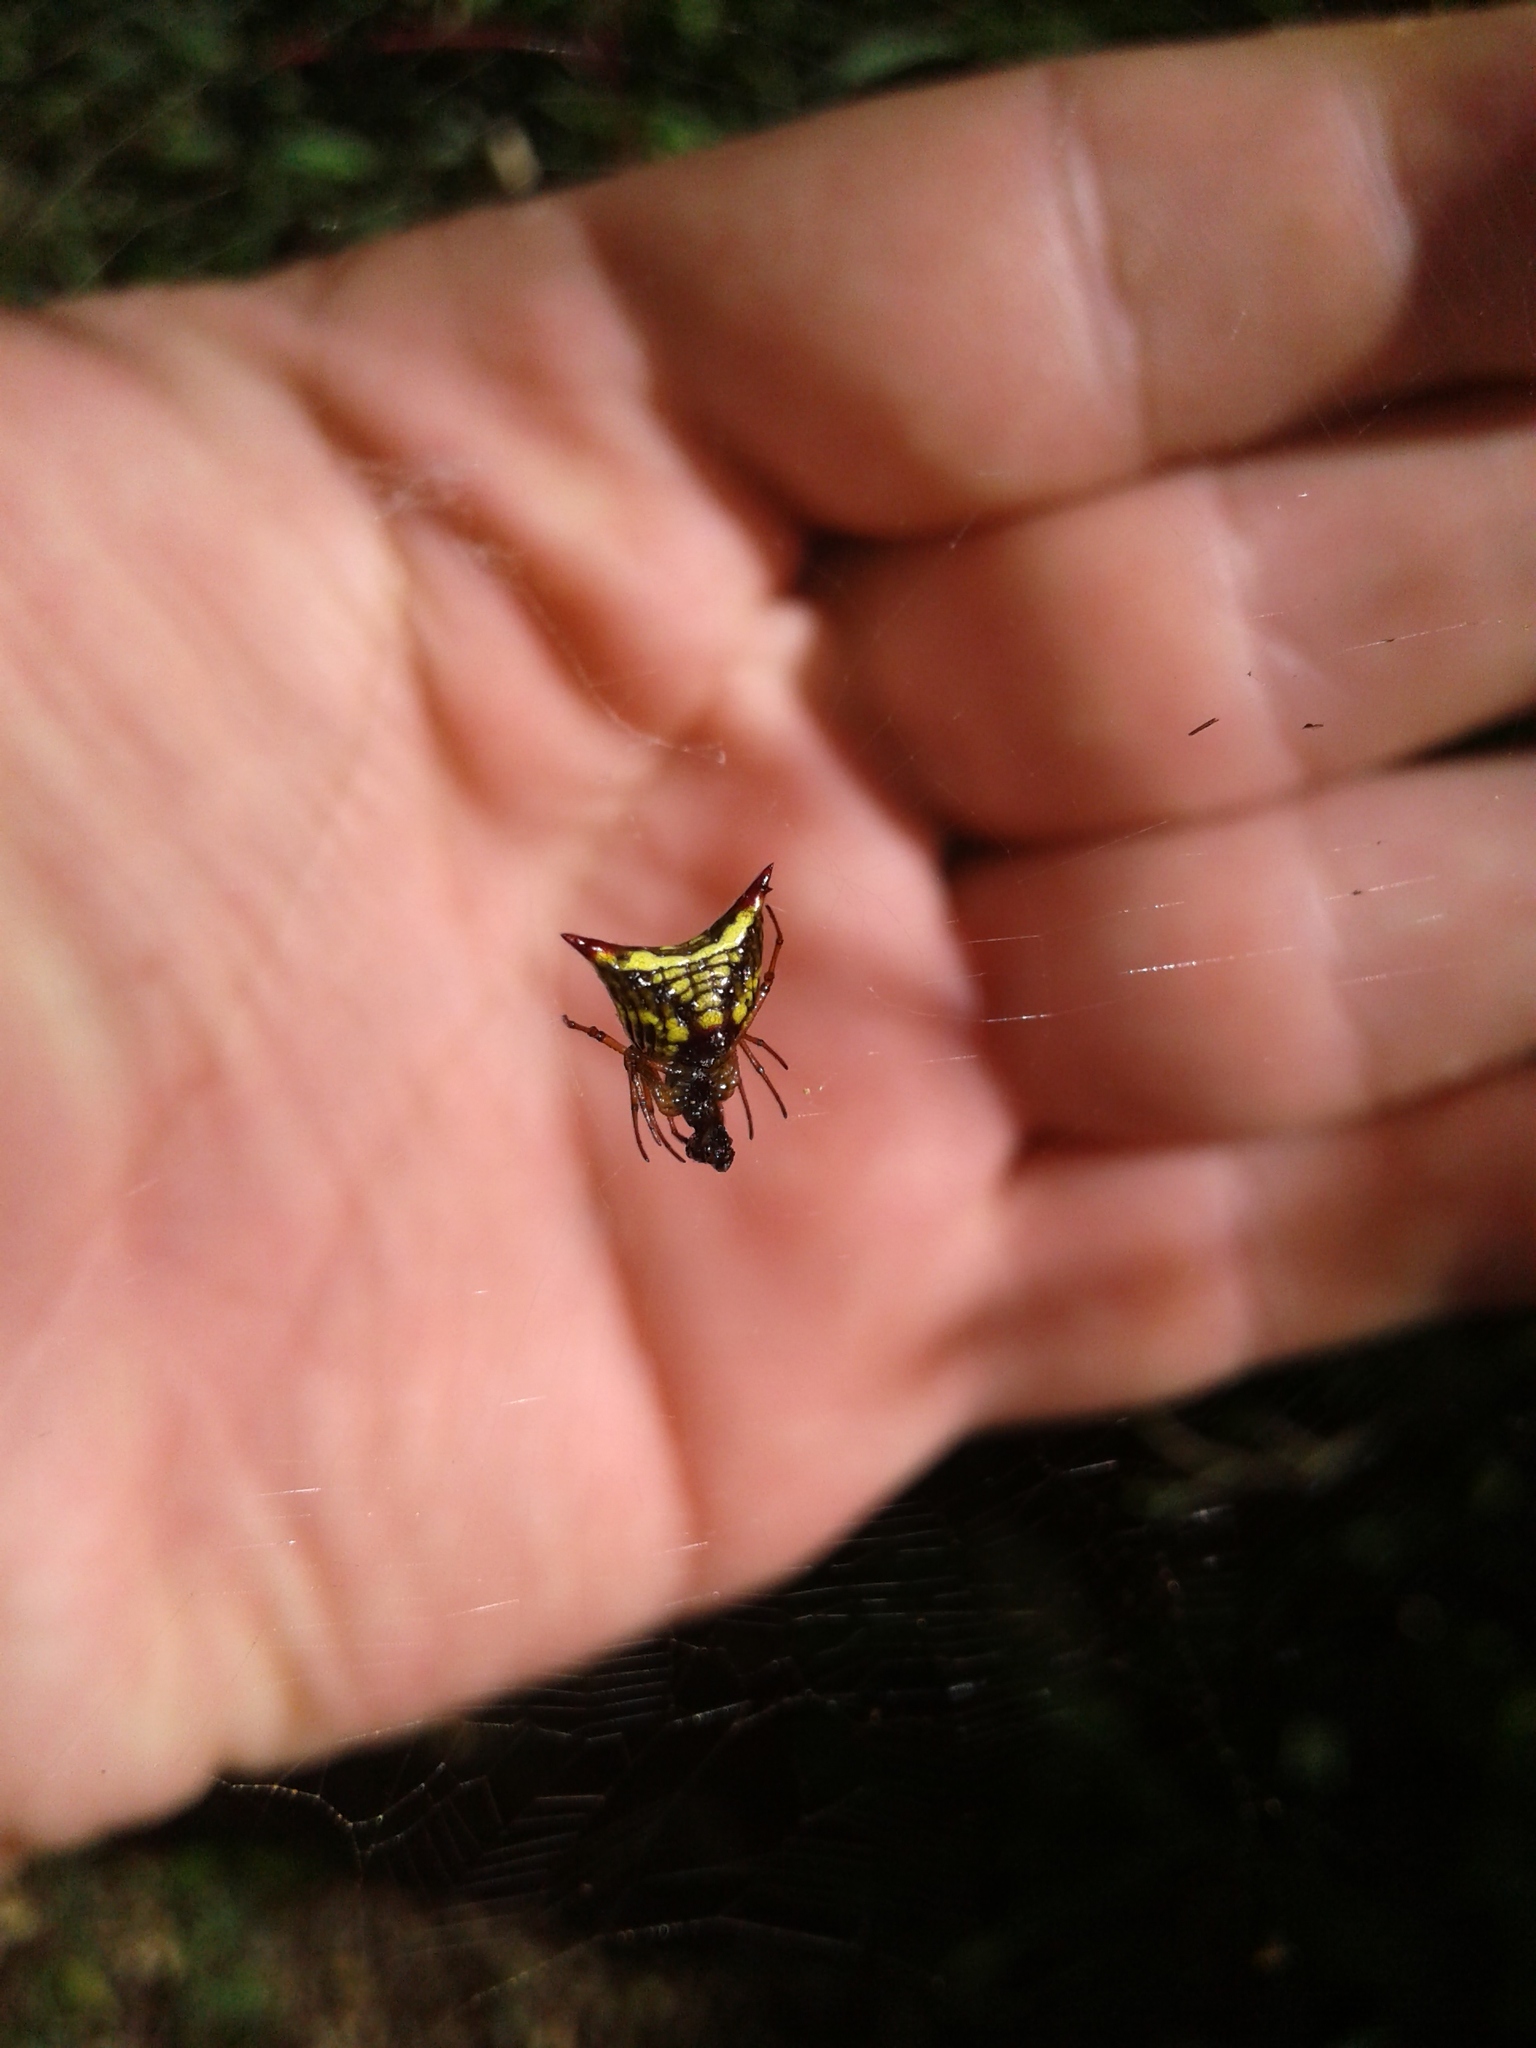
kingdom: Animalia
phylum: Arthropoda
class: Arachnida
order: Araneae
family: Araneidae
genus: Micrathena
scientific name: Micrathena plana
